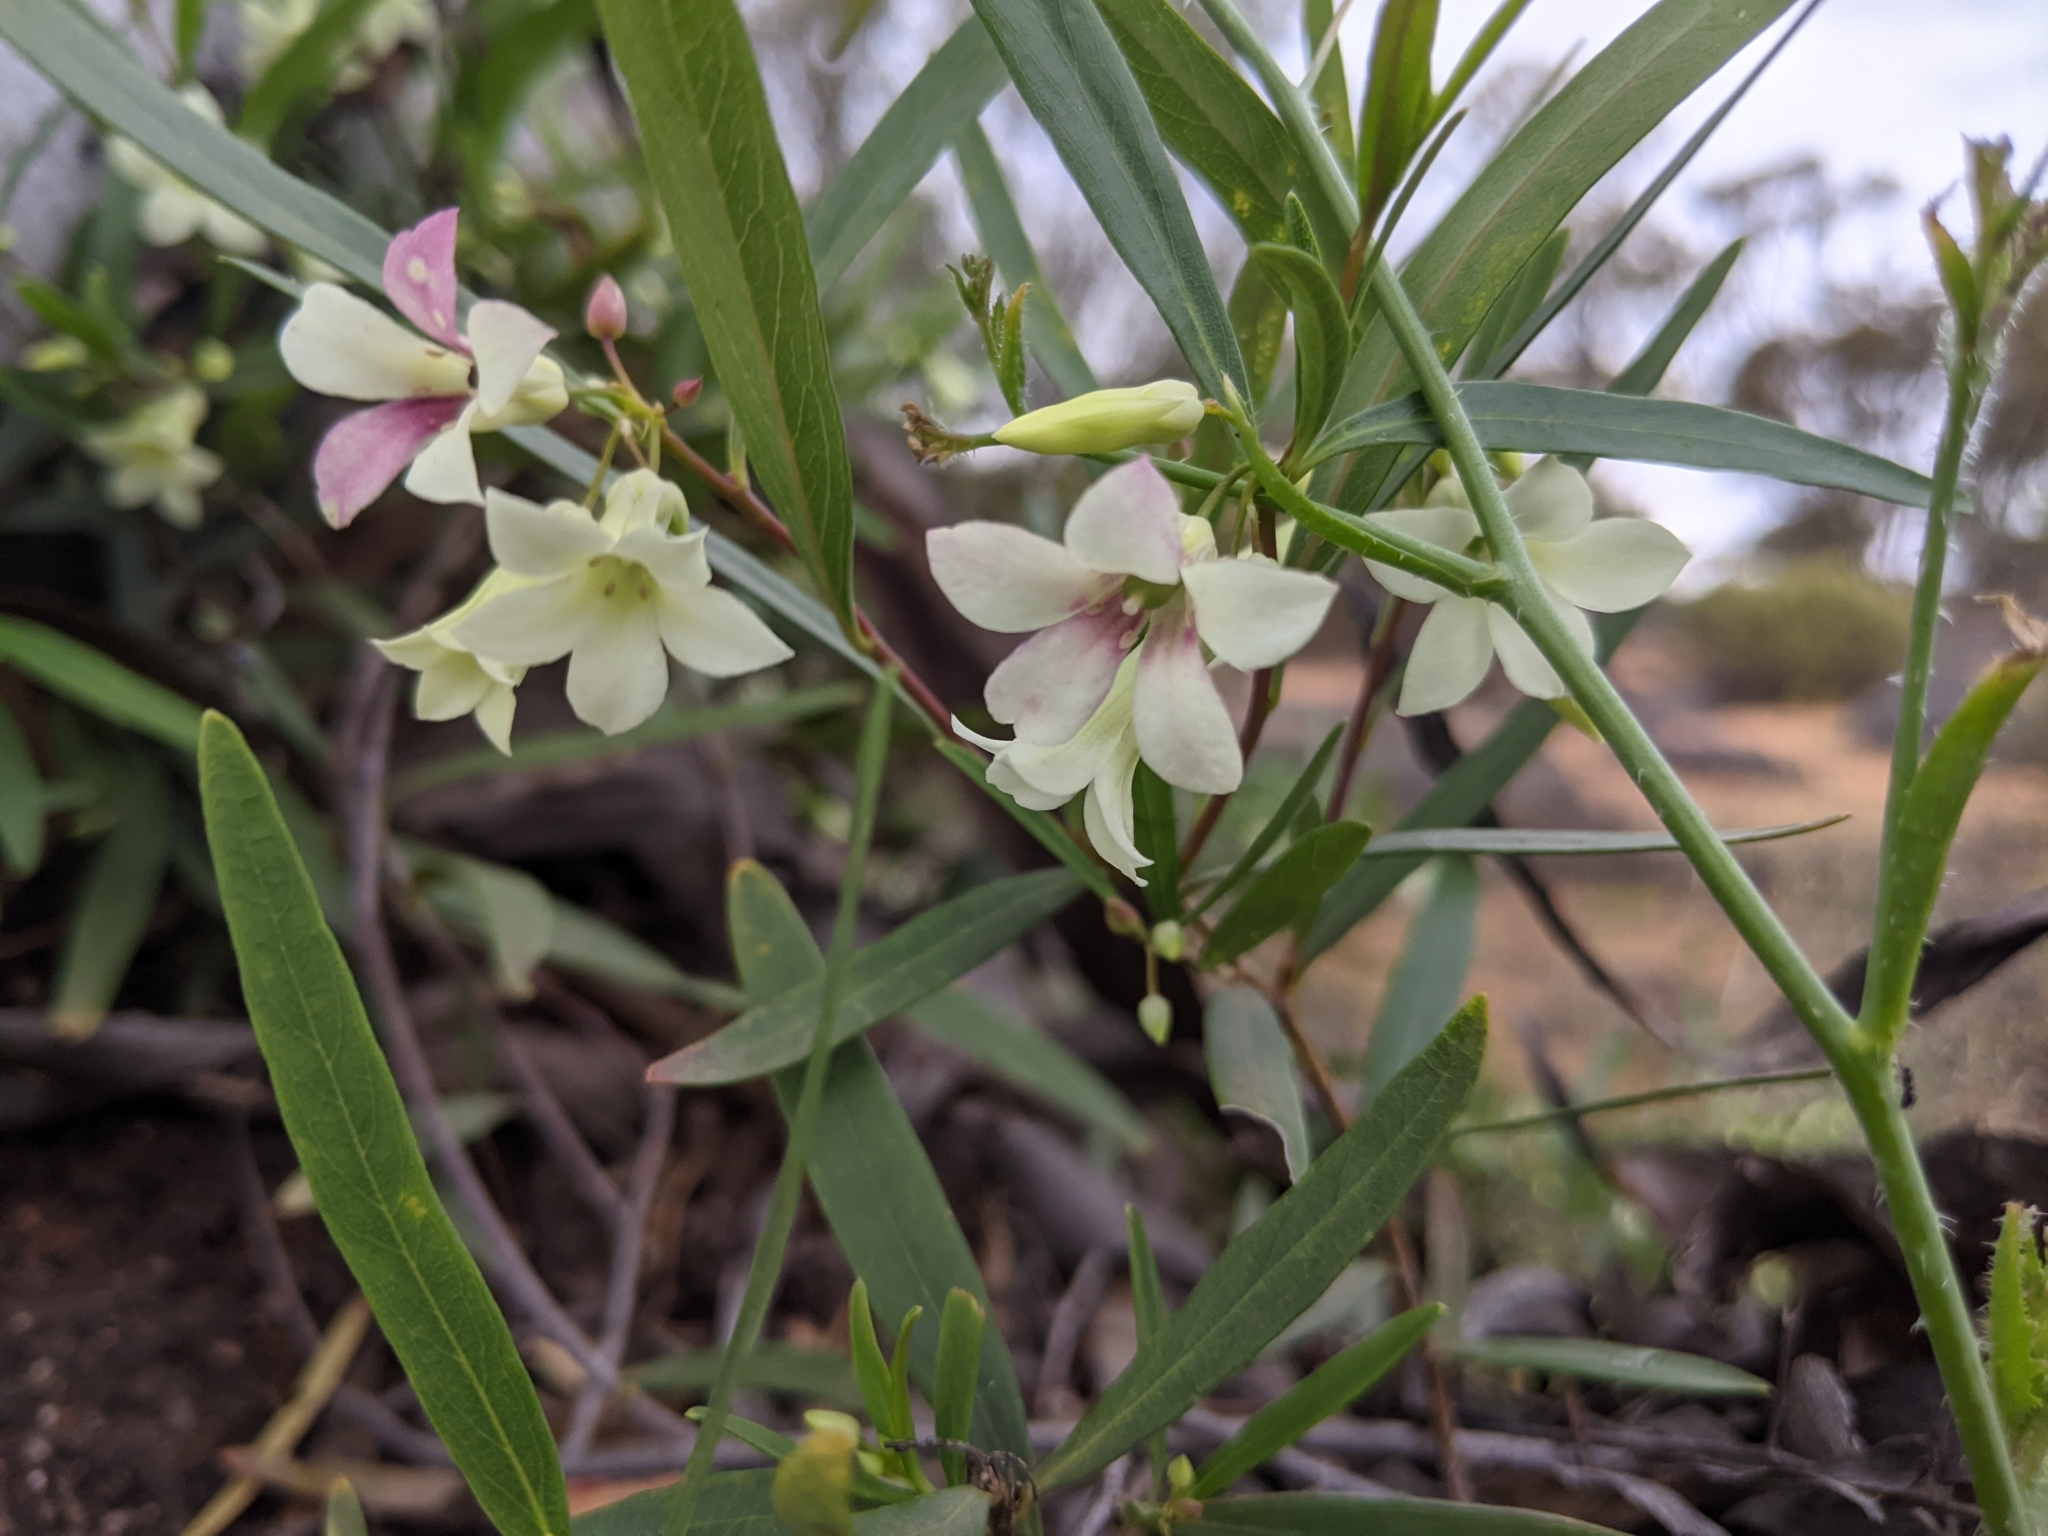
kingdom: Plantae
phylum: Tracheophyta
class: Magnoliopsida
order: Apiales
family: Pittosporaceae
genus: Billardiera
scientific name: Billardiera versicolor
